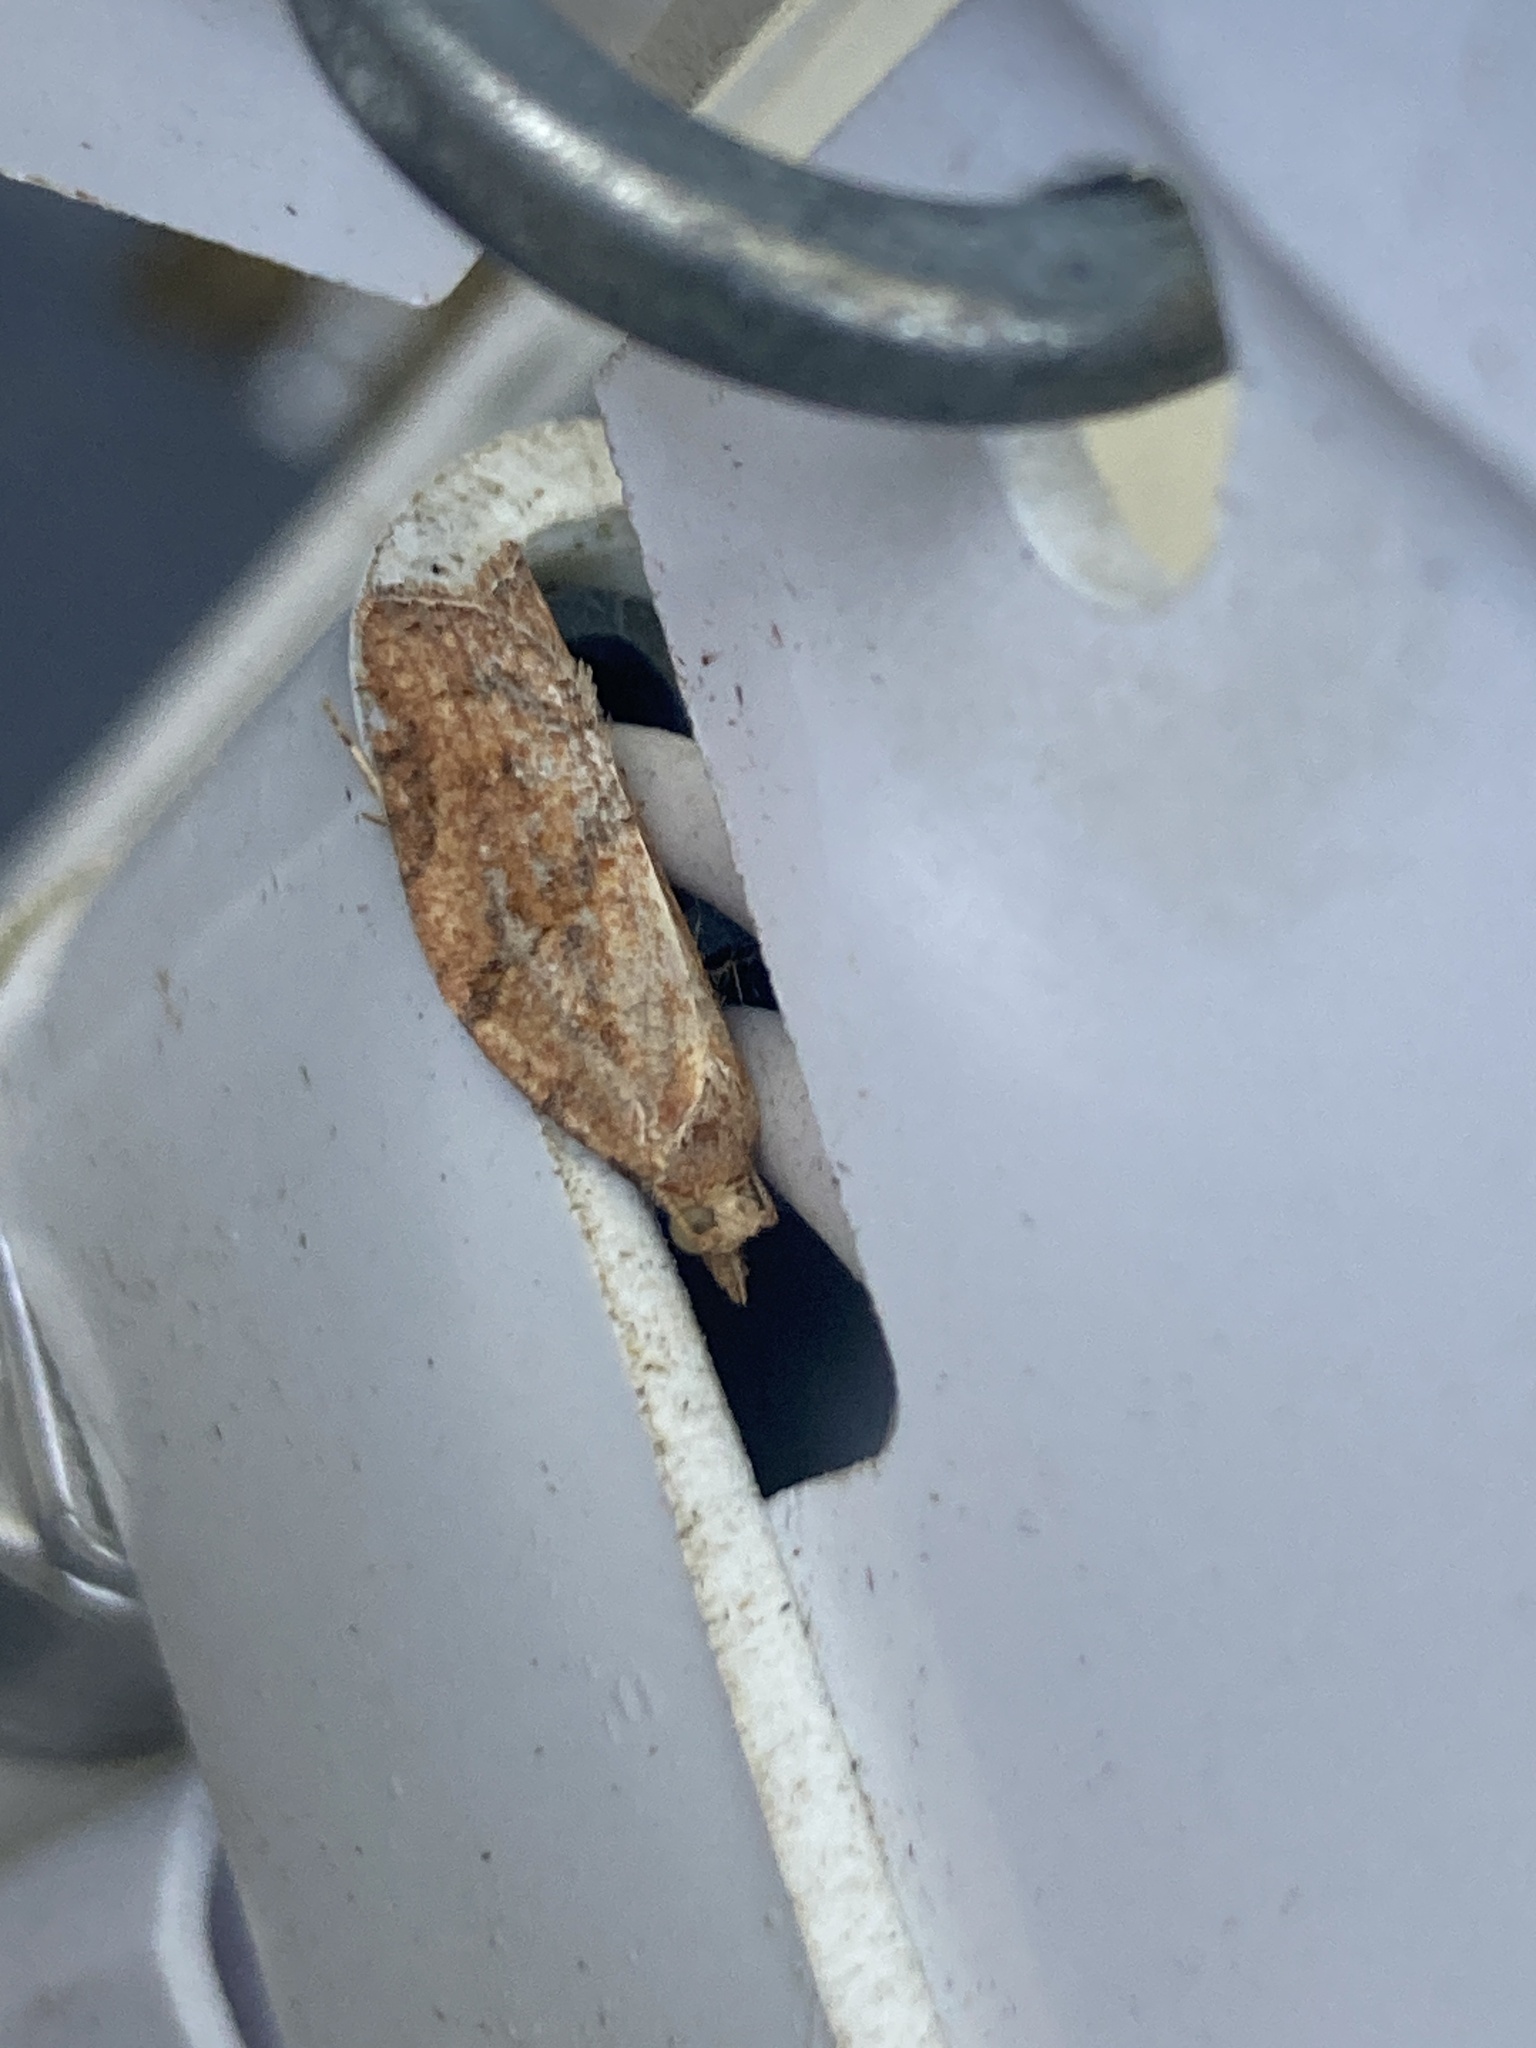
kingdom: Animalia
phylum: Arthropoda
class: Insecta
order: Lepidoptera
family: Tortricidae
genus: Epiphyas
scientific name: Epiphyas postvittana
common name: Light brown apple moth
